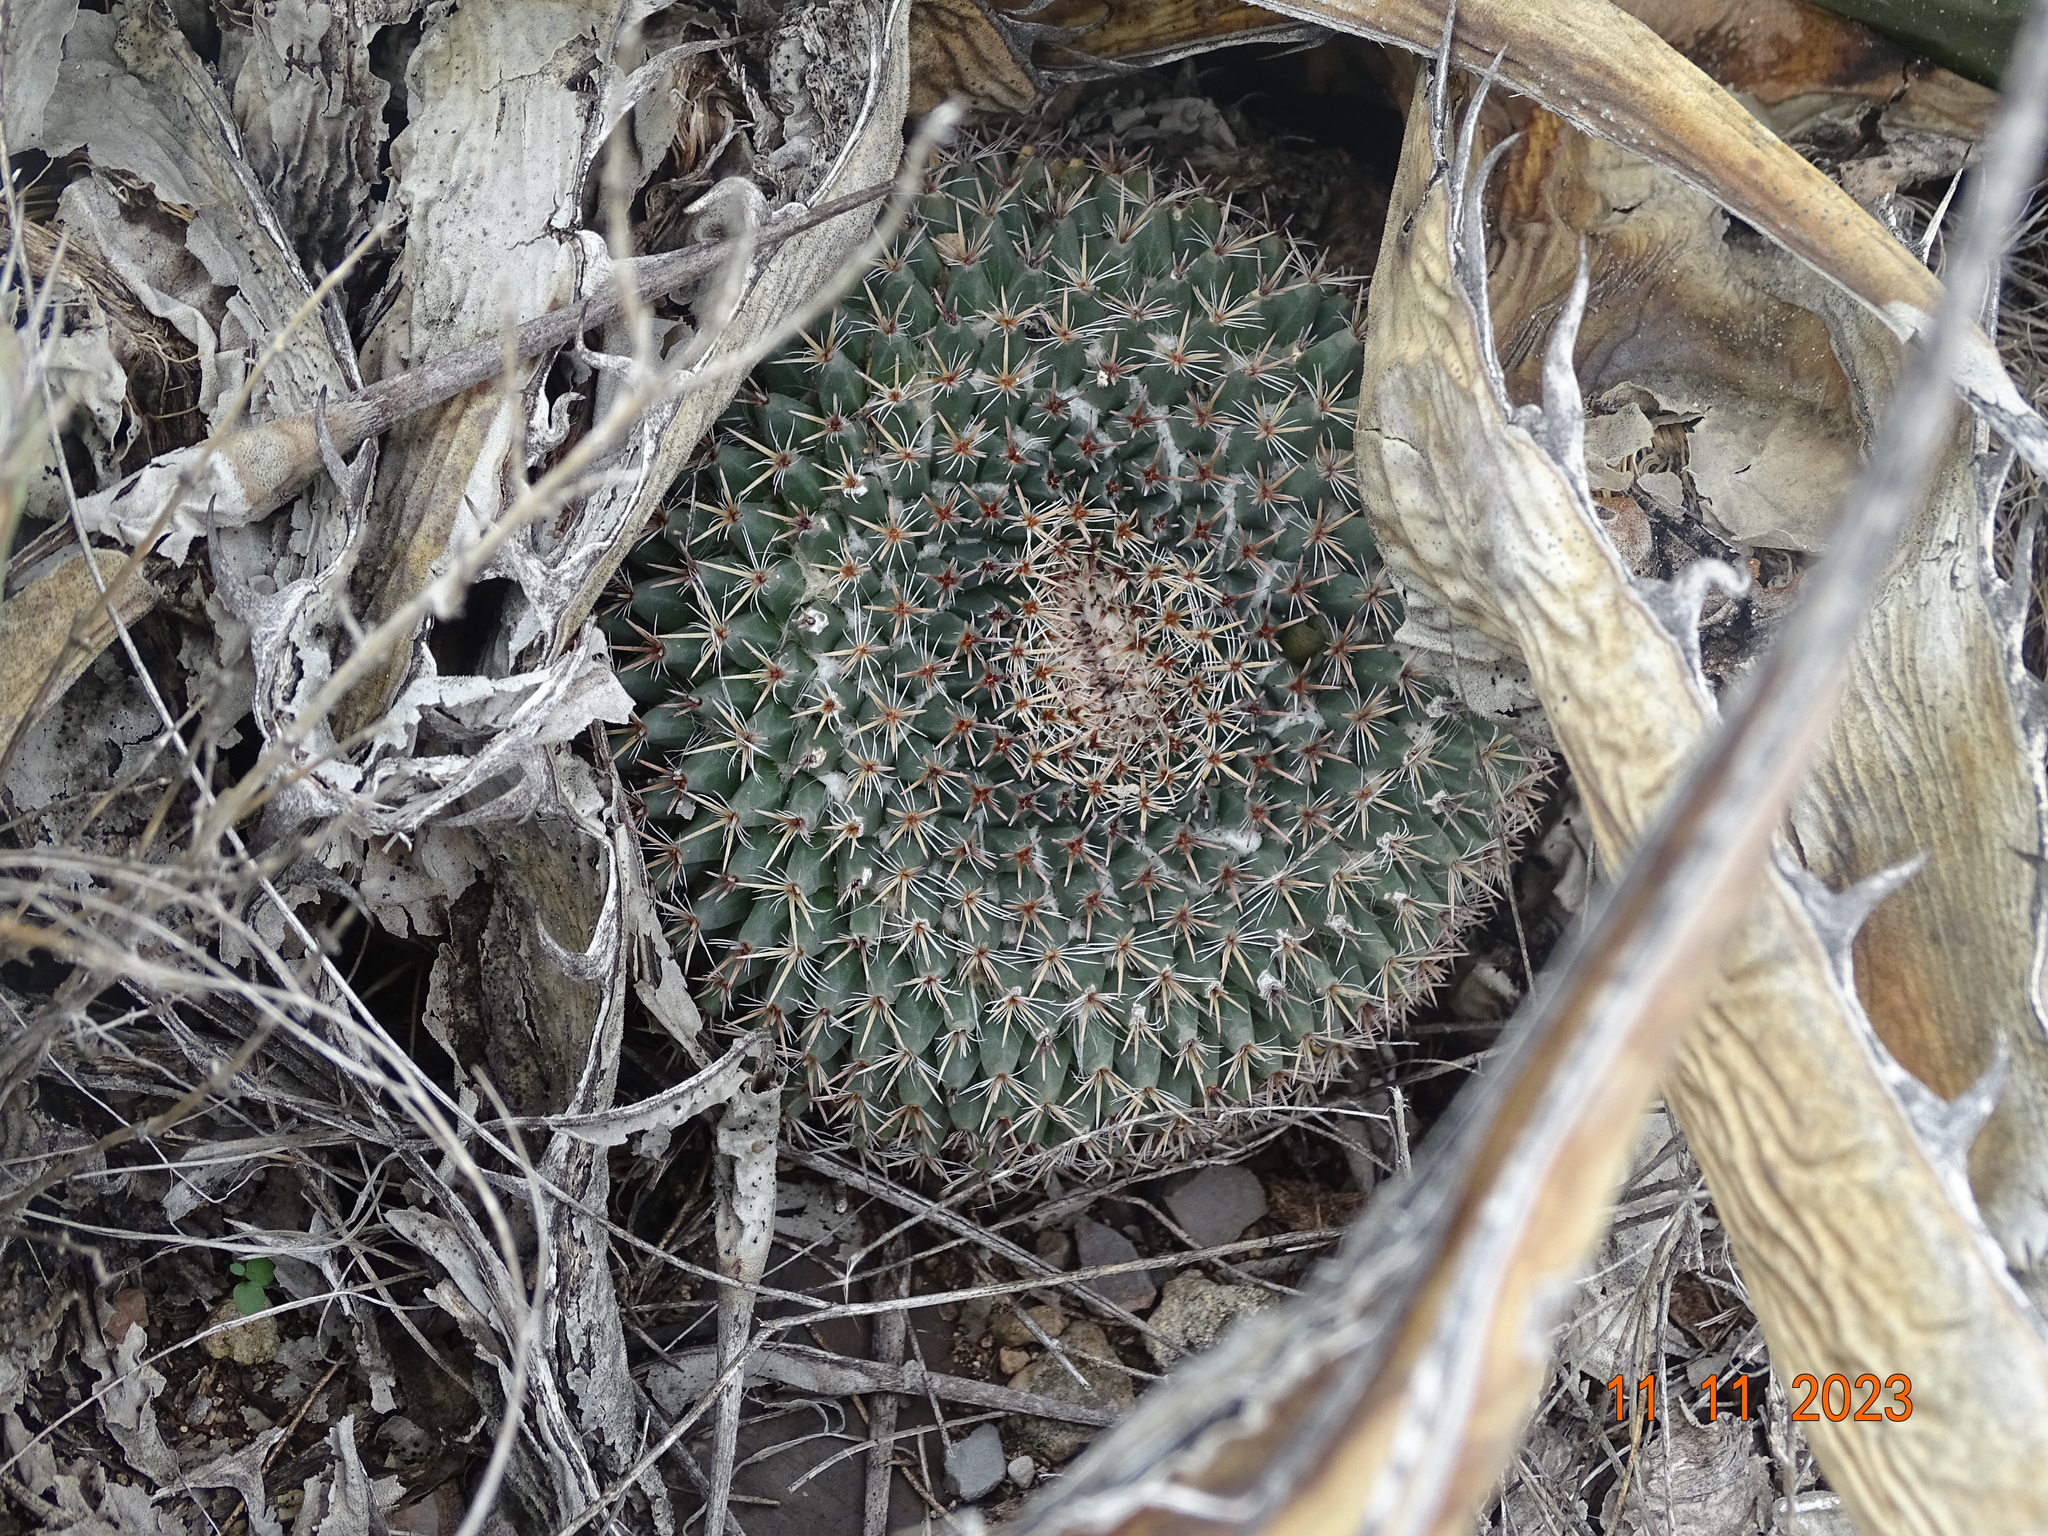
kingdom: Plantae
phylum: Tracheophyta
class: Magnoliopsida
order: Caryophyllales
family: Cactaceae
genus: Mammillaria
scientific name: Mammillaria formosa
